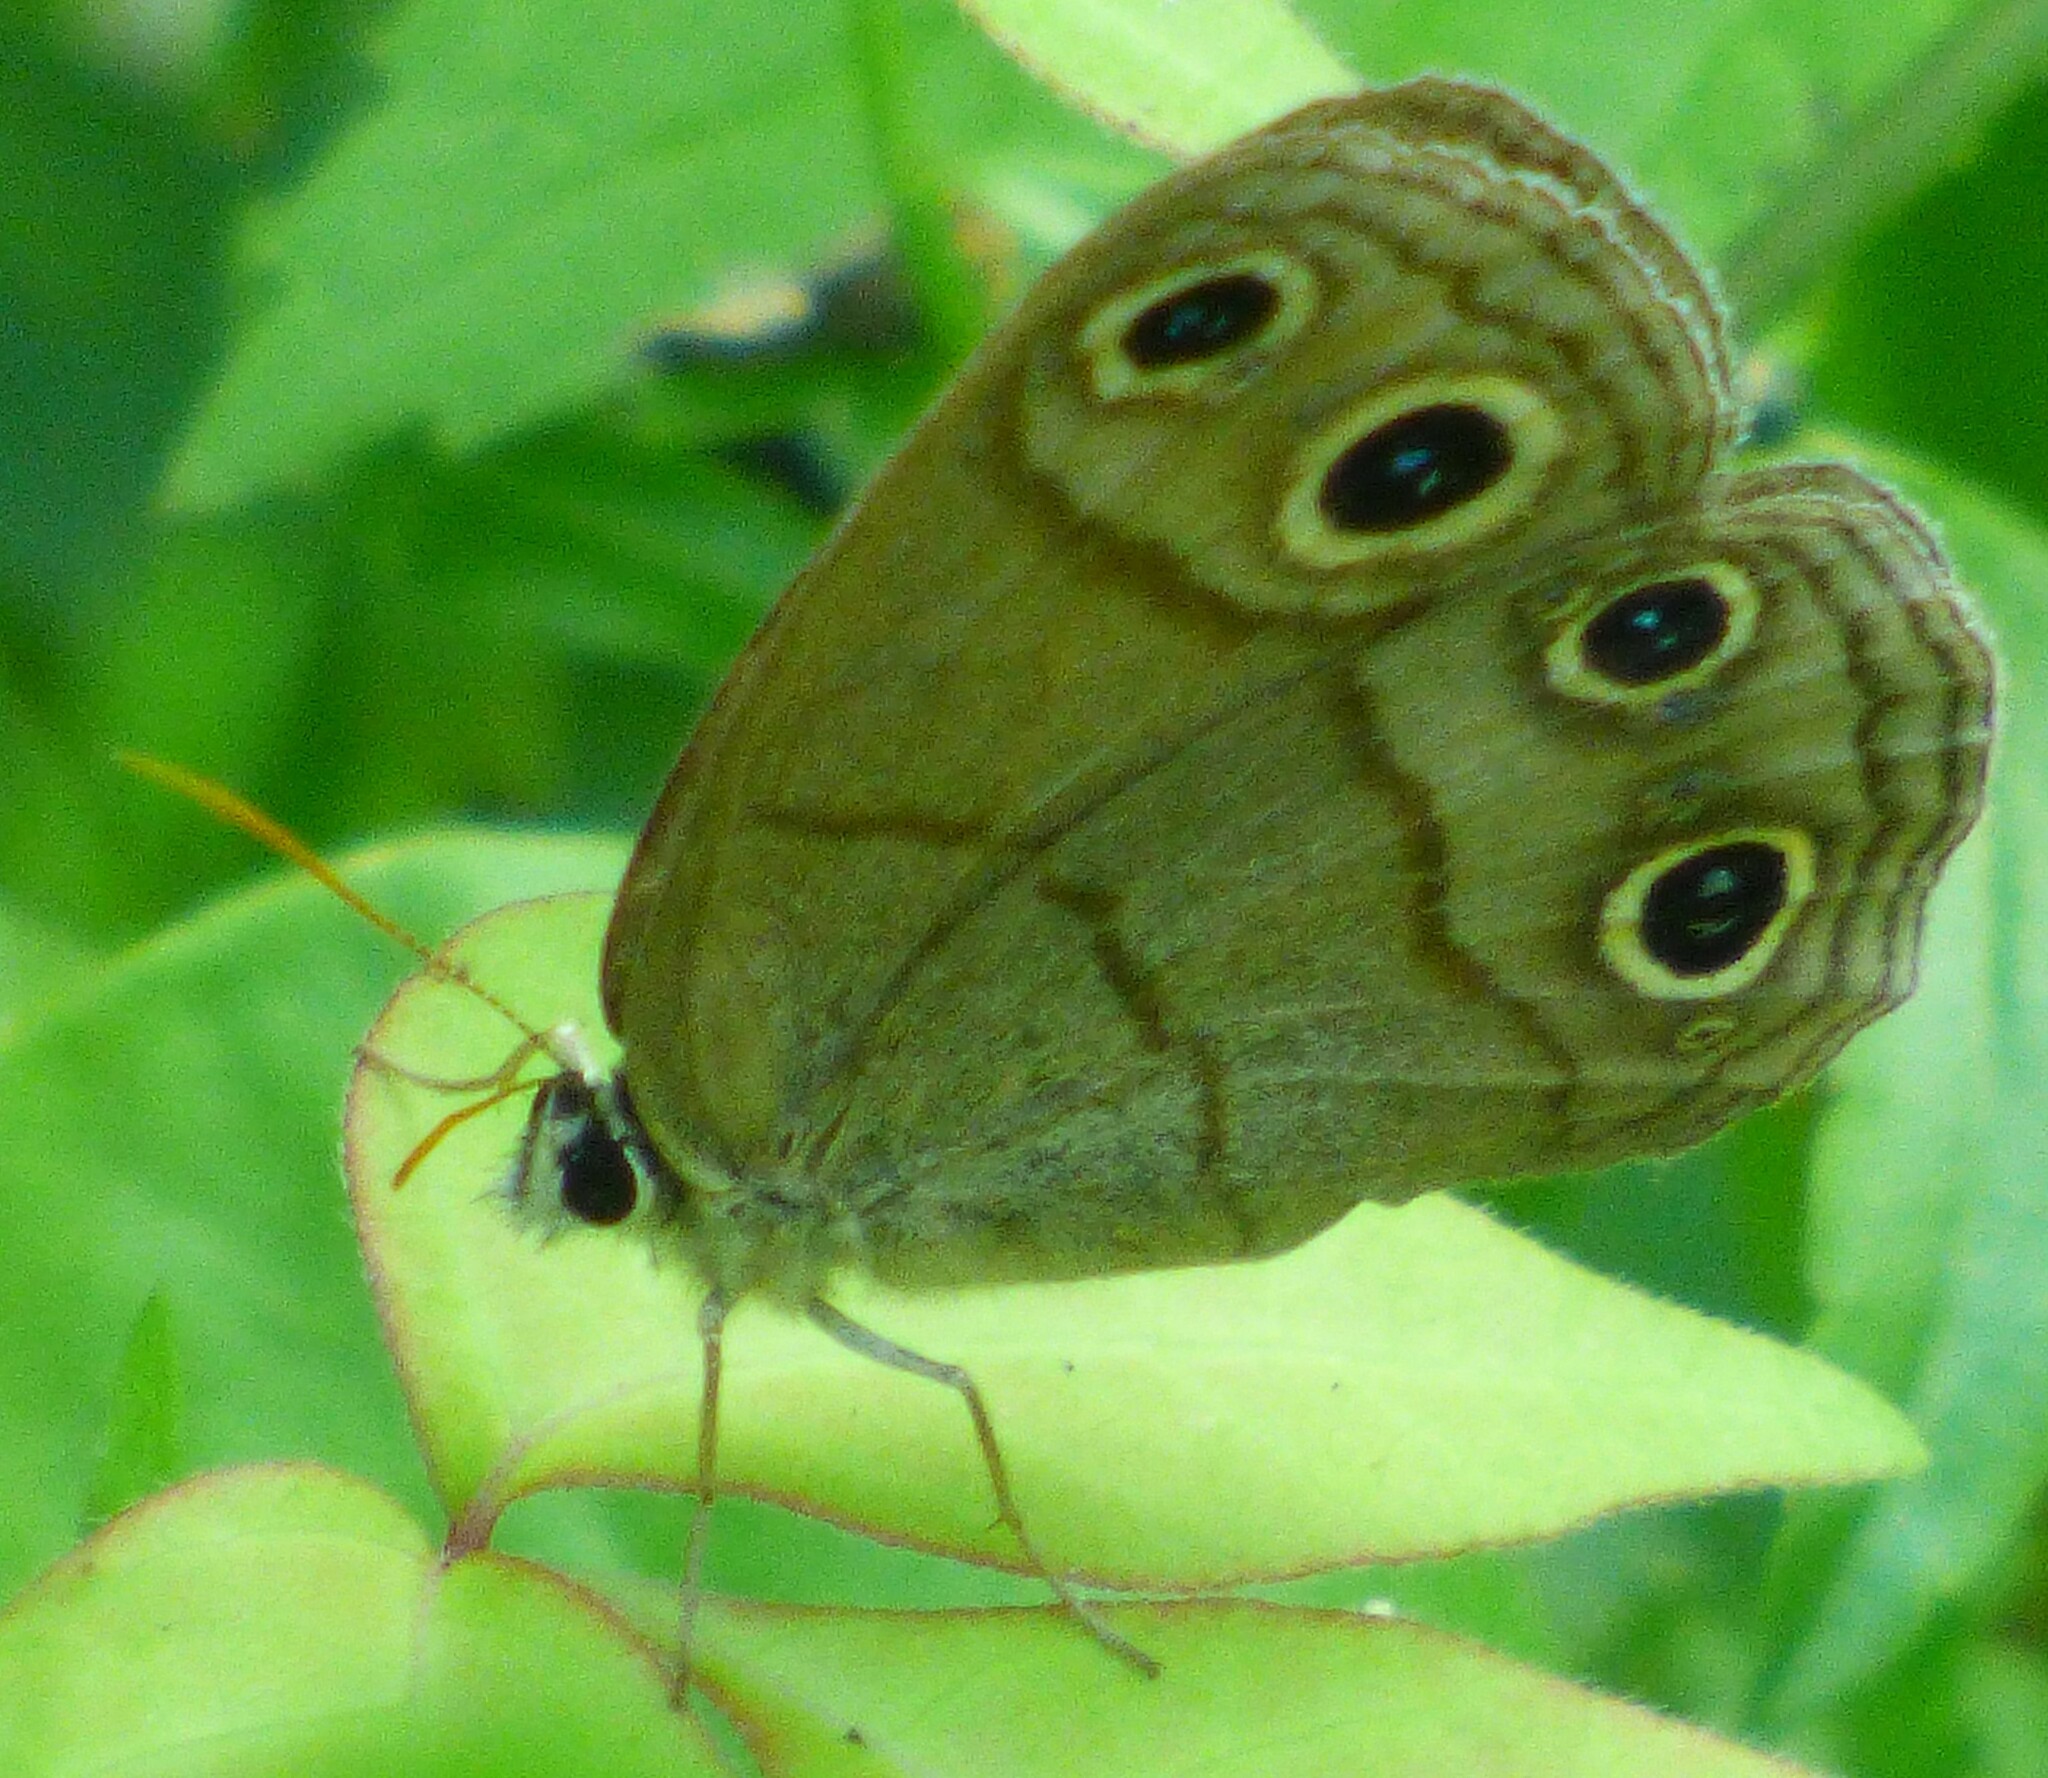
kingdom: Animalia
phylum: Arthropoda
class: Insecta
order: Lepidoptera
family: Nymphalidae
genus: Euptychia
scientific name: Euptychia cymela
